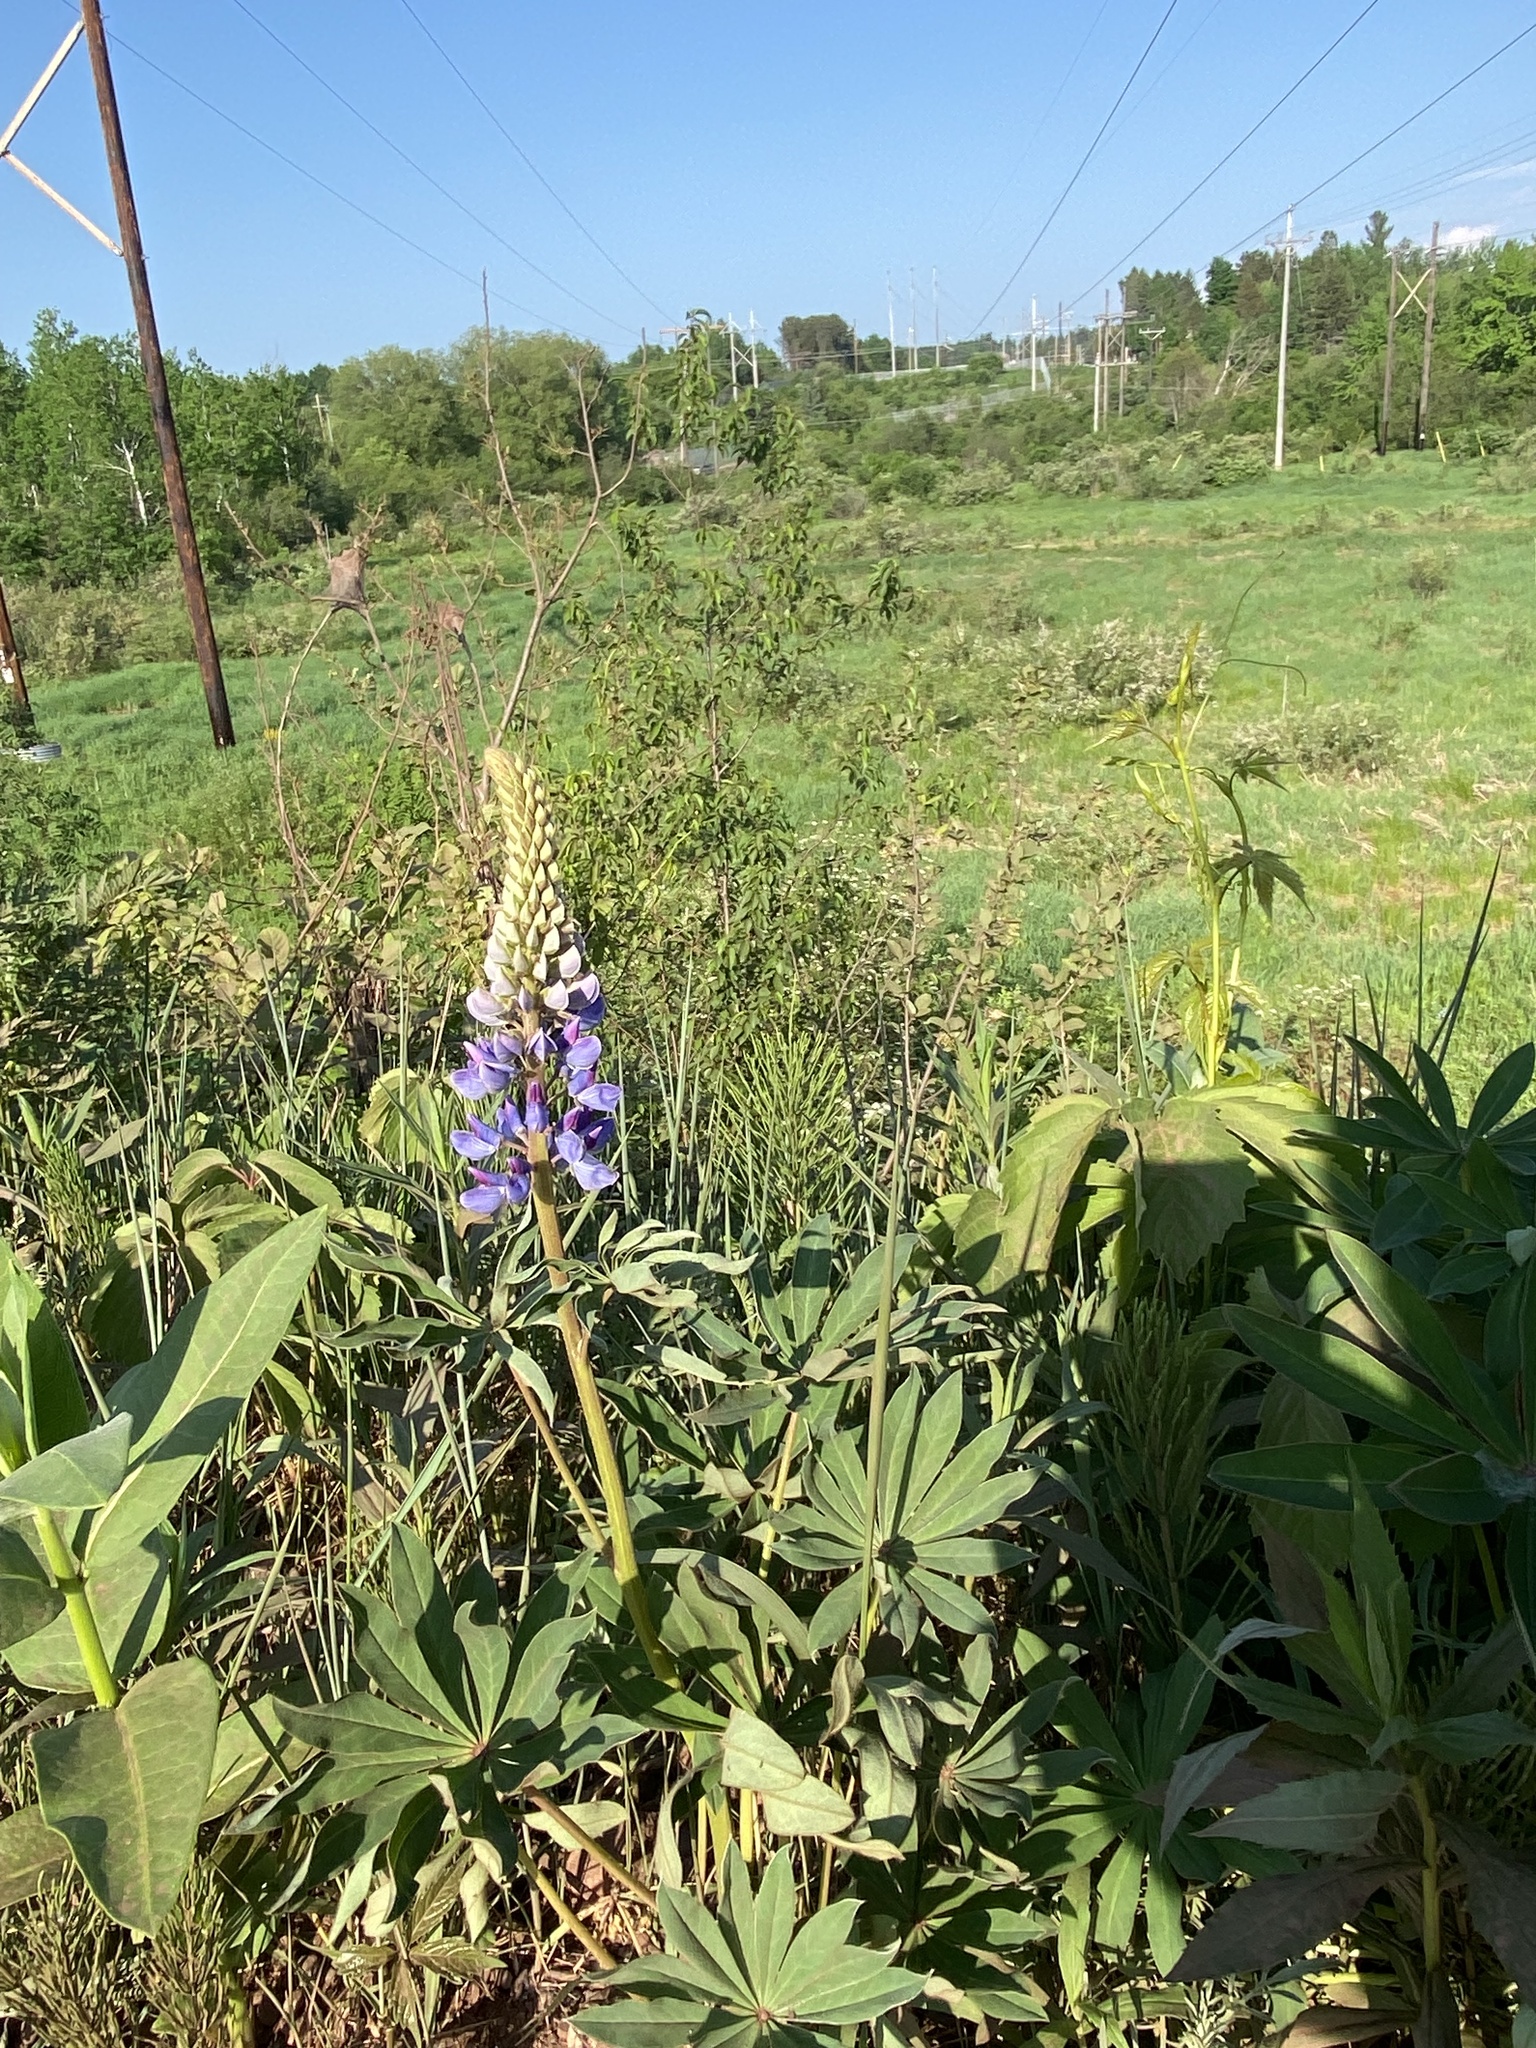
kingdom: Plantae
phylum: Tracheophyta
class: Magnoliopsida
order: Fabales
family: Fabaceae
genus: Lupinus
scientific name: Lupinus polyphyllus
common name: Garden lupin
